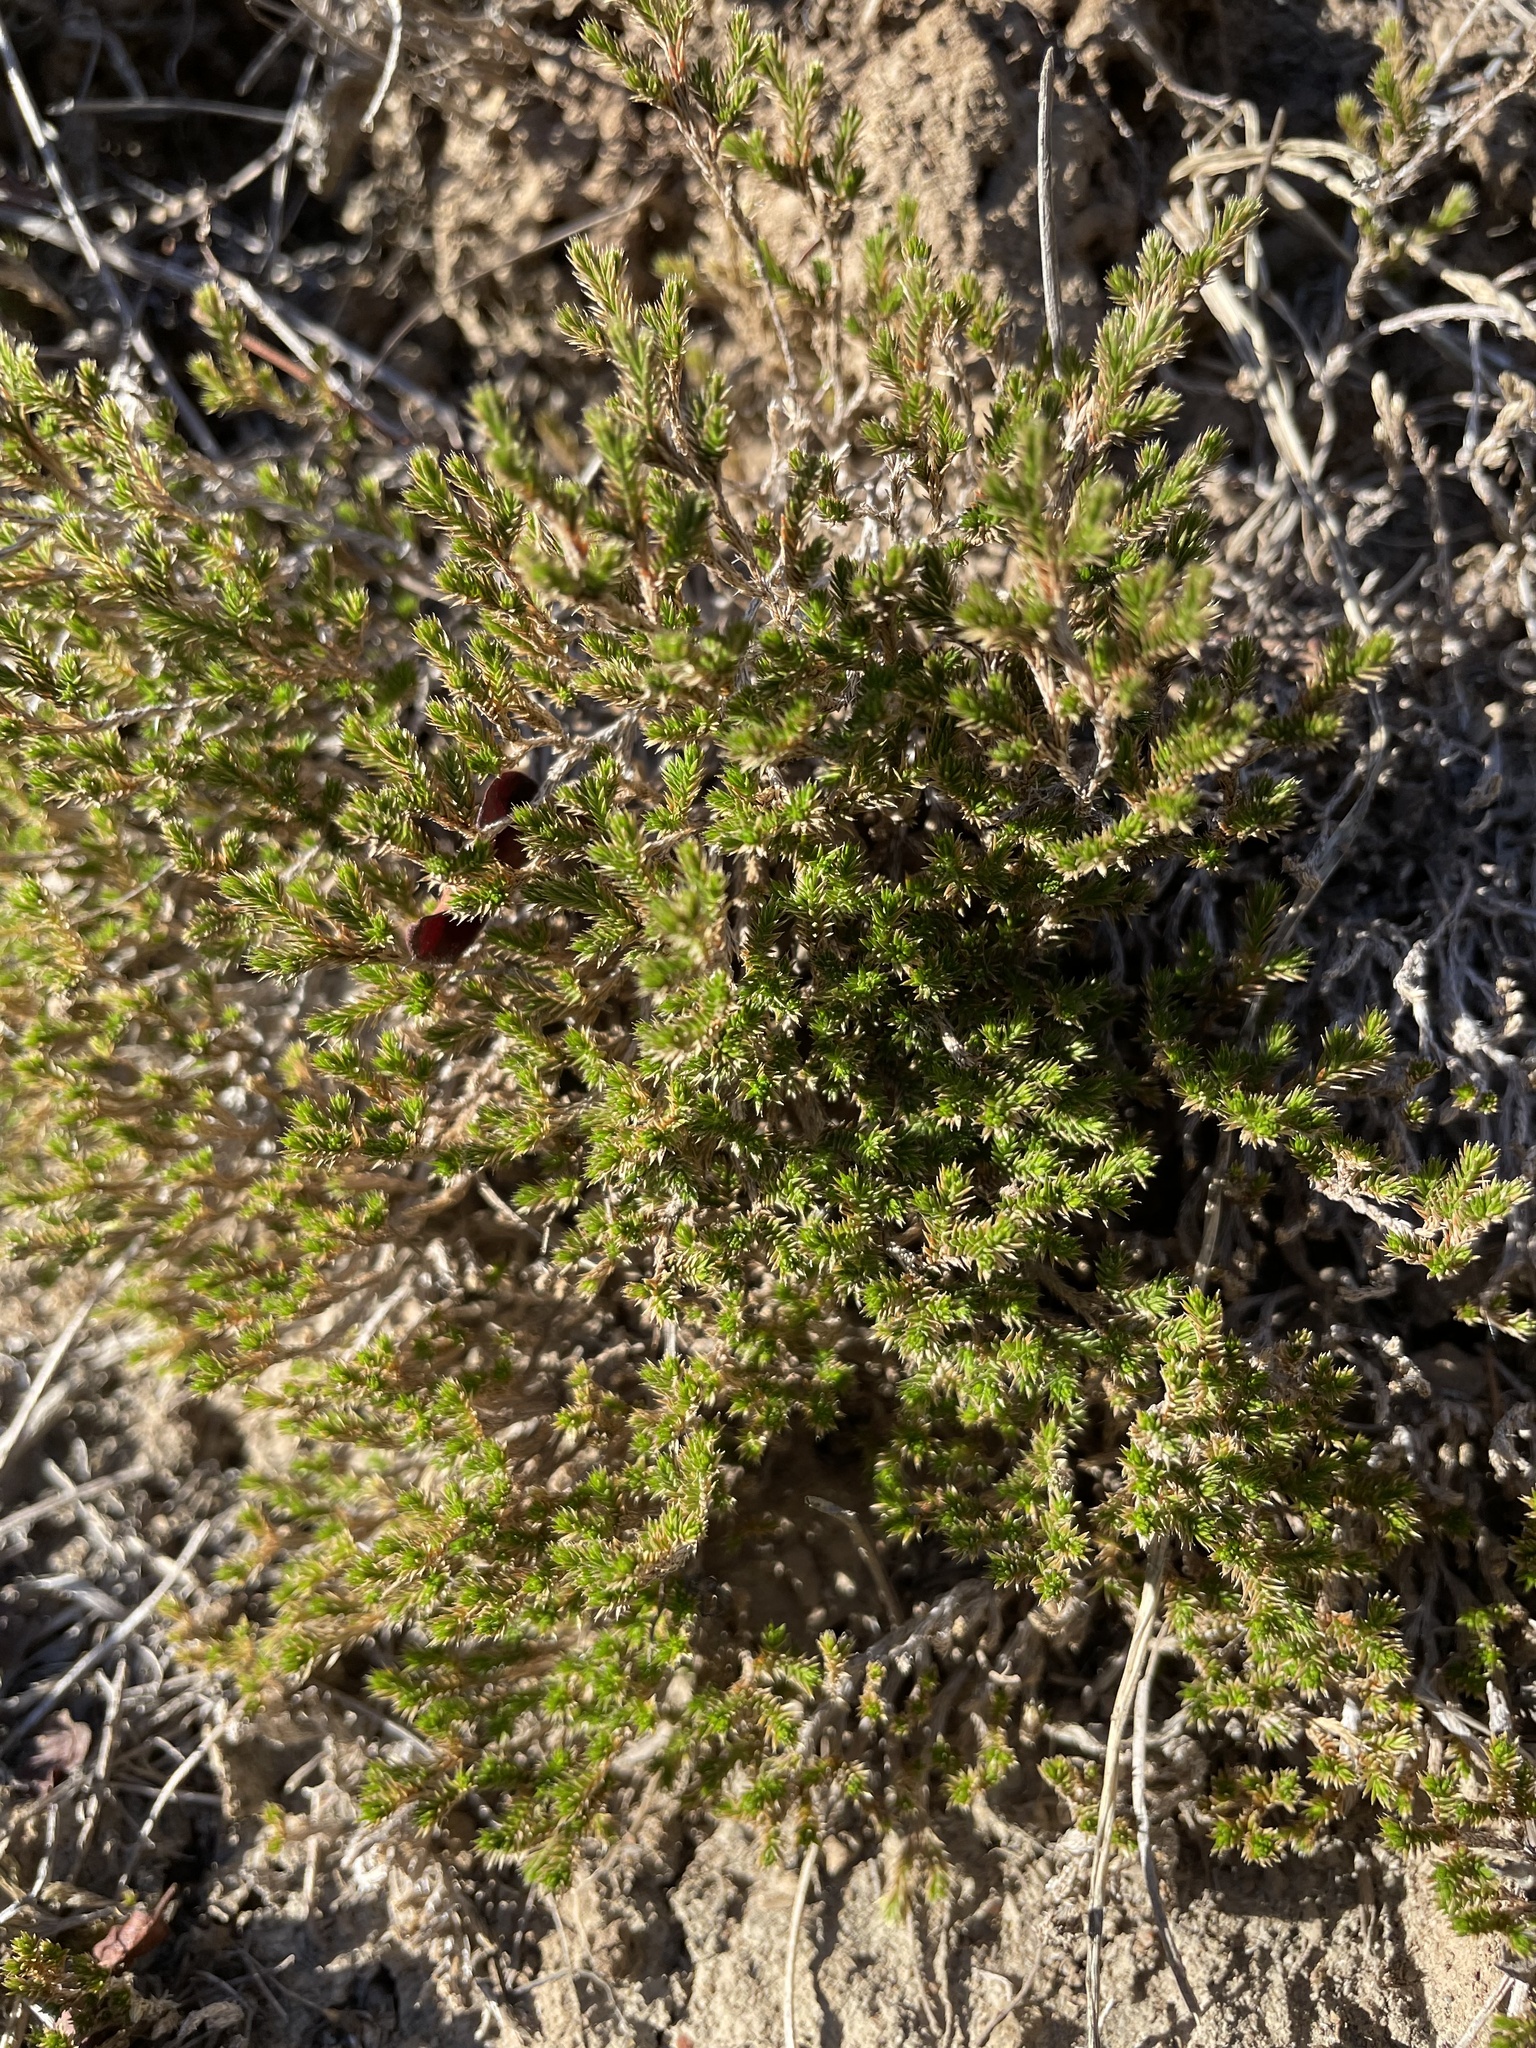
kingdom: Plantae
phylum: Tracheophyta
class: Lycopodiopsida
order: Selaginellales
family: Selaginellaceae
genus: Selaginella
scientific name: Selaginella bigelovii
